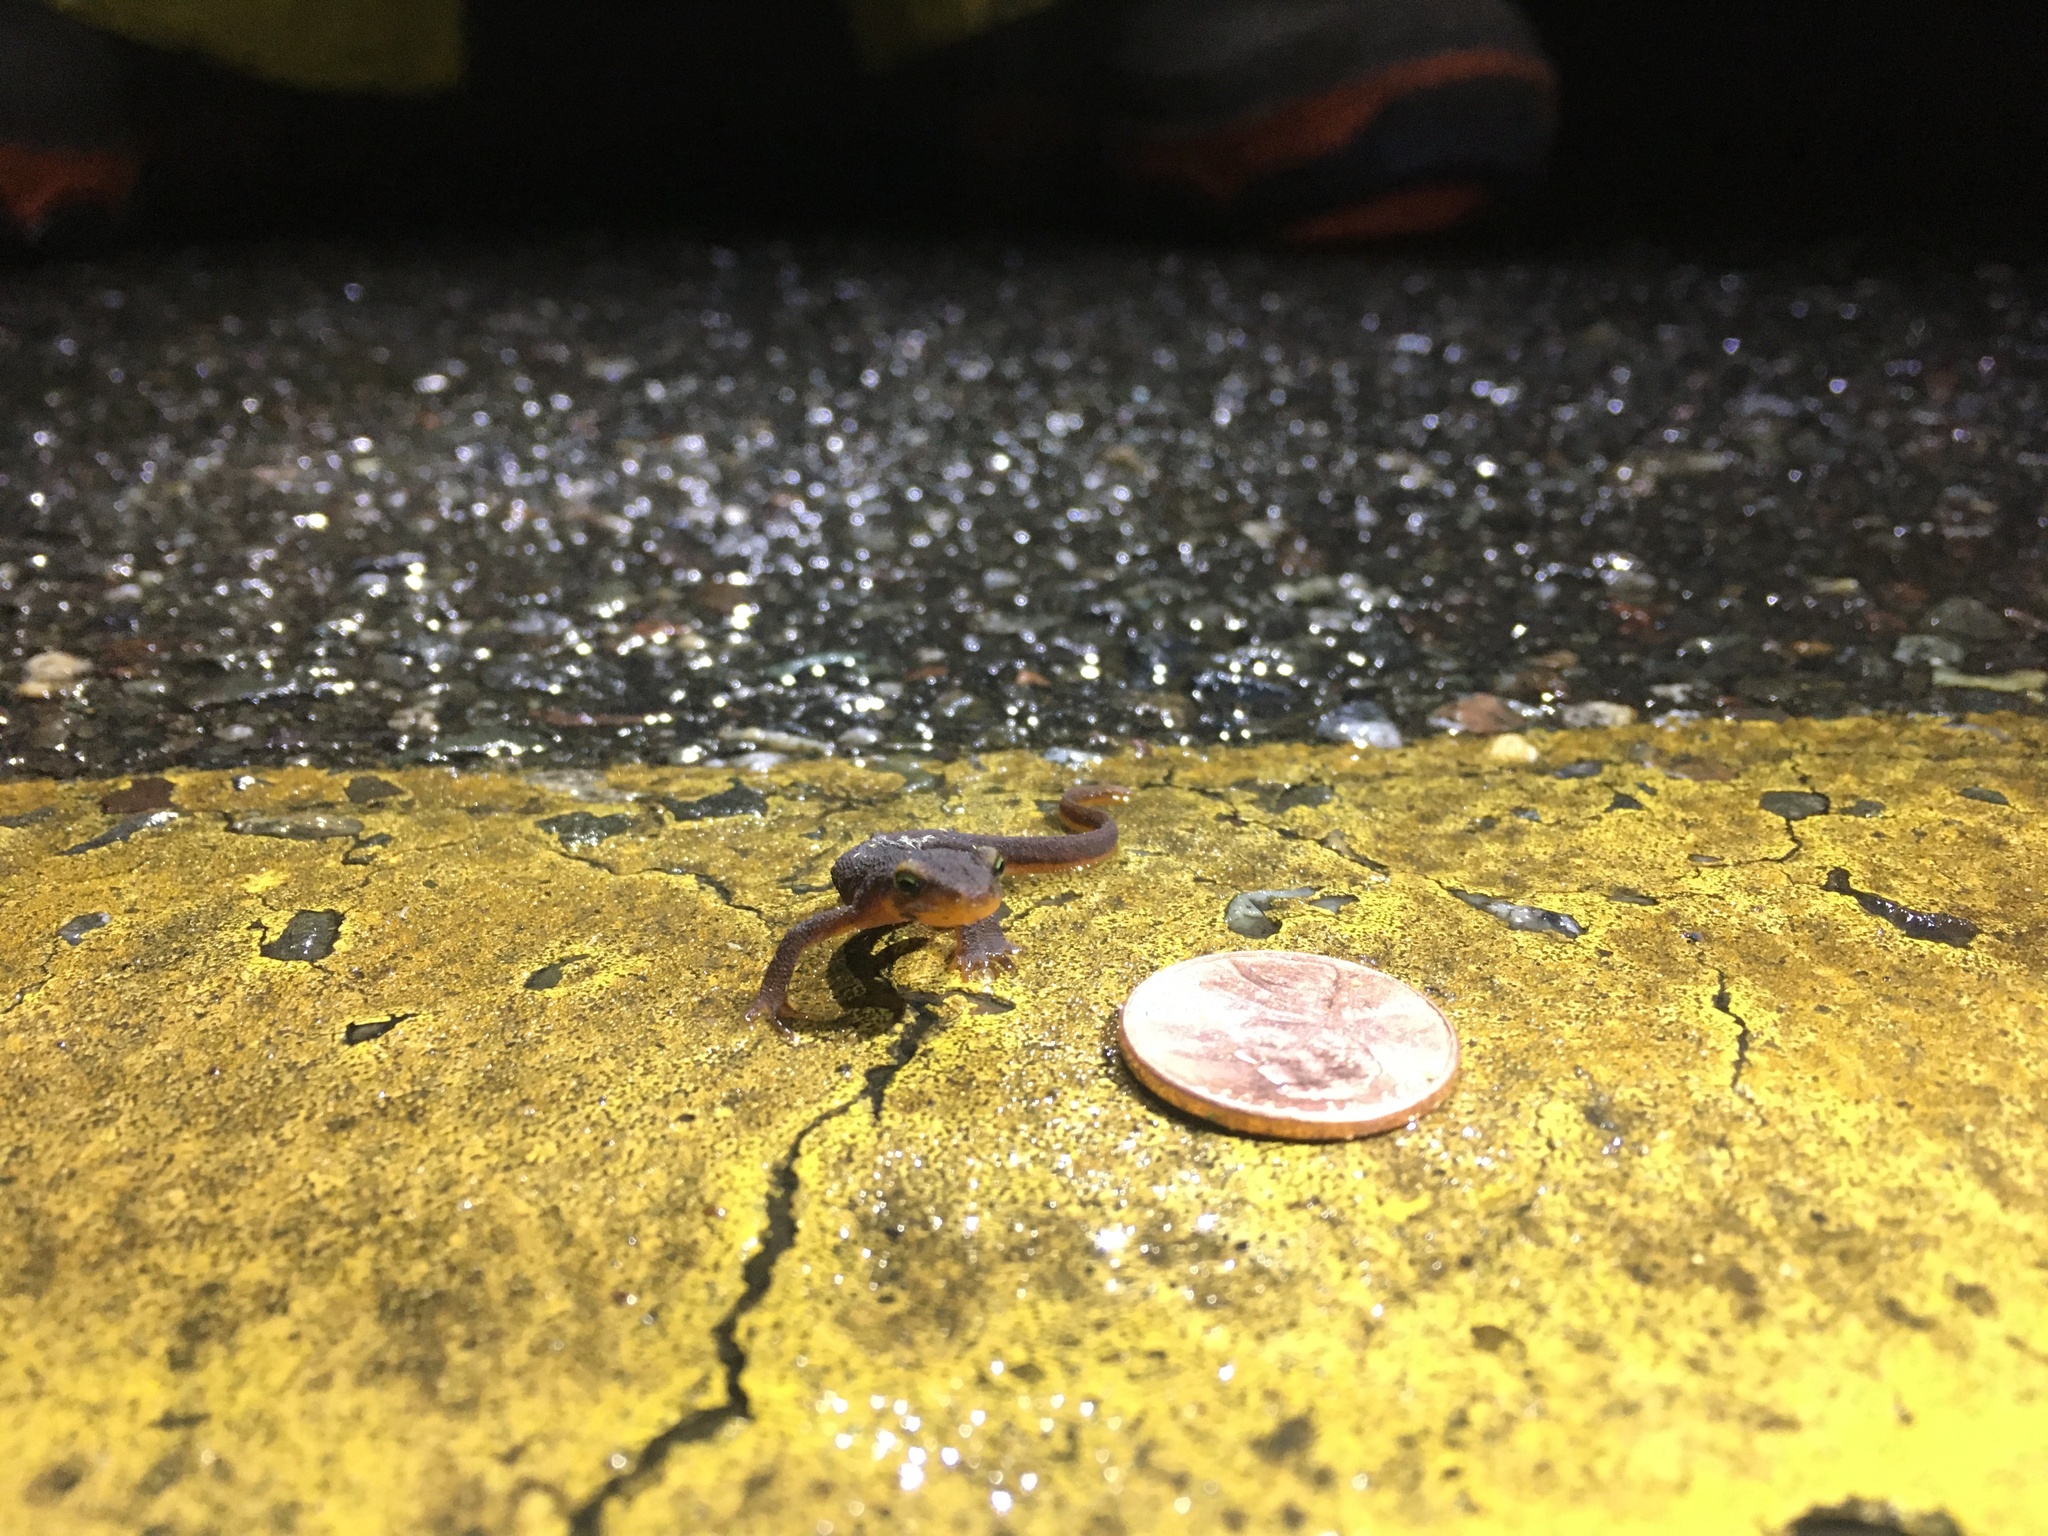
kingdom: Animalia
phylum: Chordata
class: Amphibia
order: Caudata
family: Salamandridae
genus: Taricha
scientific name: Taricha torosa
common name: California newt
